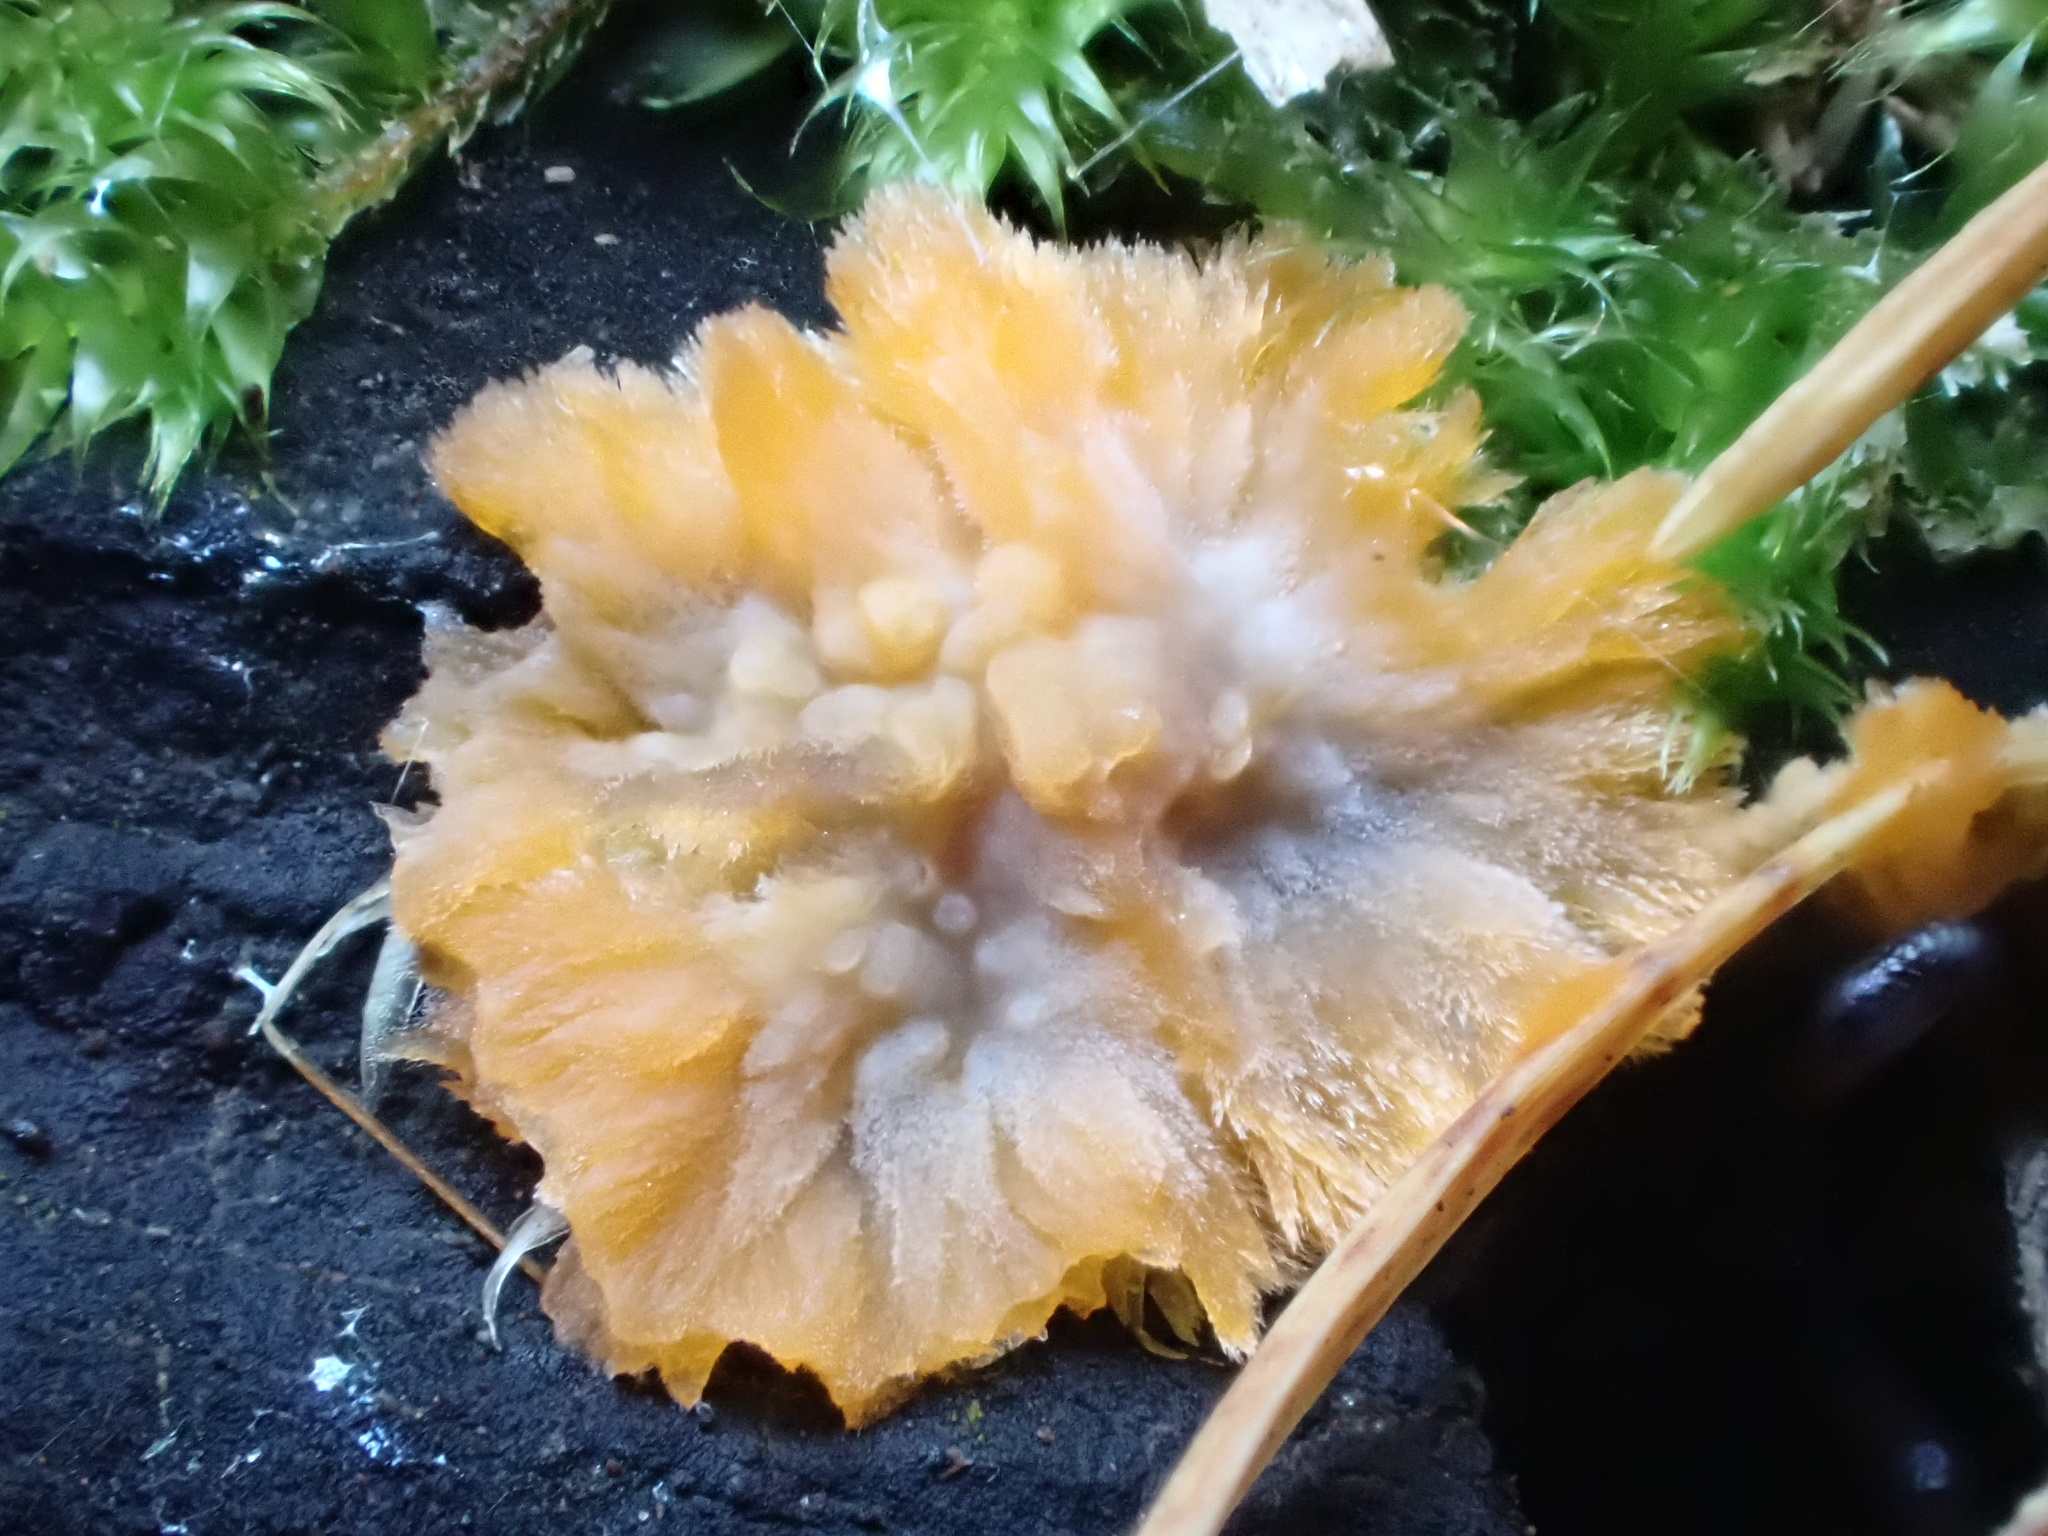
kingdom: Fungi
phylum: Basidiomycota
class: Agaricomycetes
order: Polyporales
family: Meruliaceae
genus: Phlebia
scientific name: Phlebia radiata
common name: Wrinkled crust
